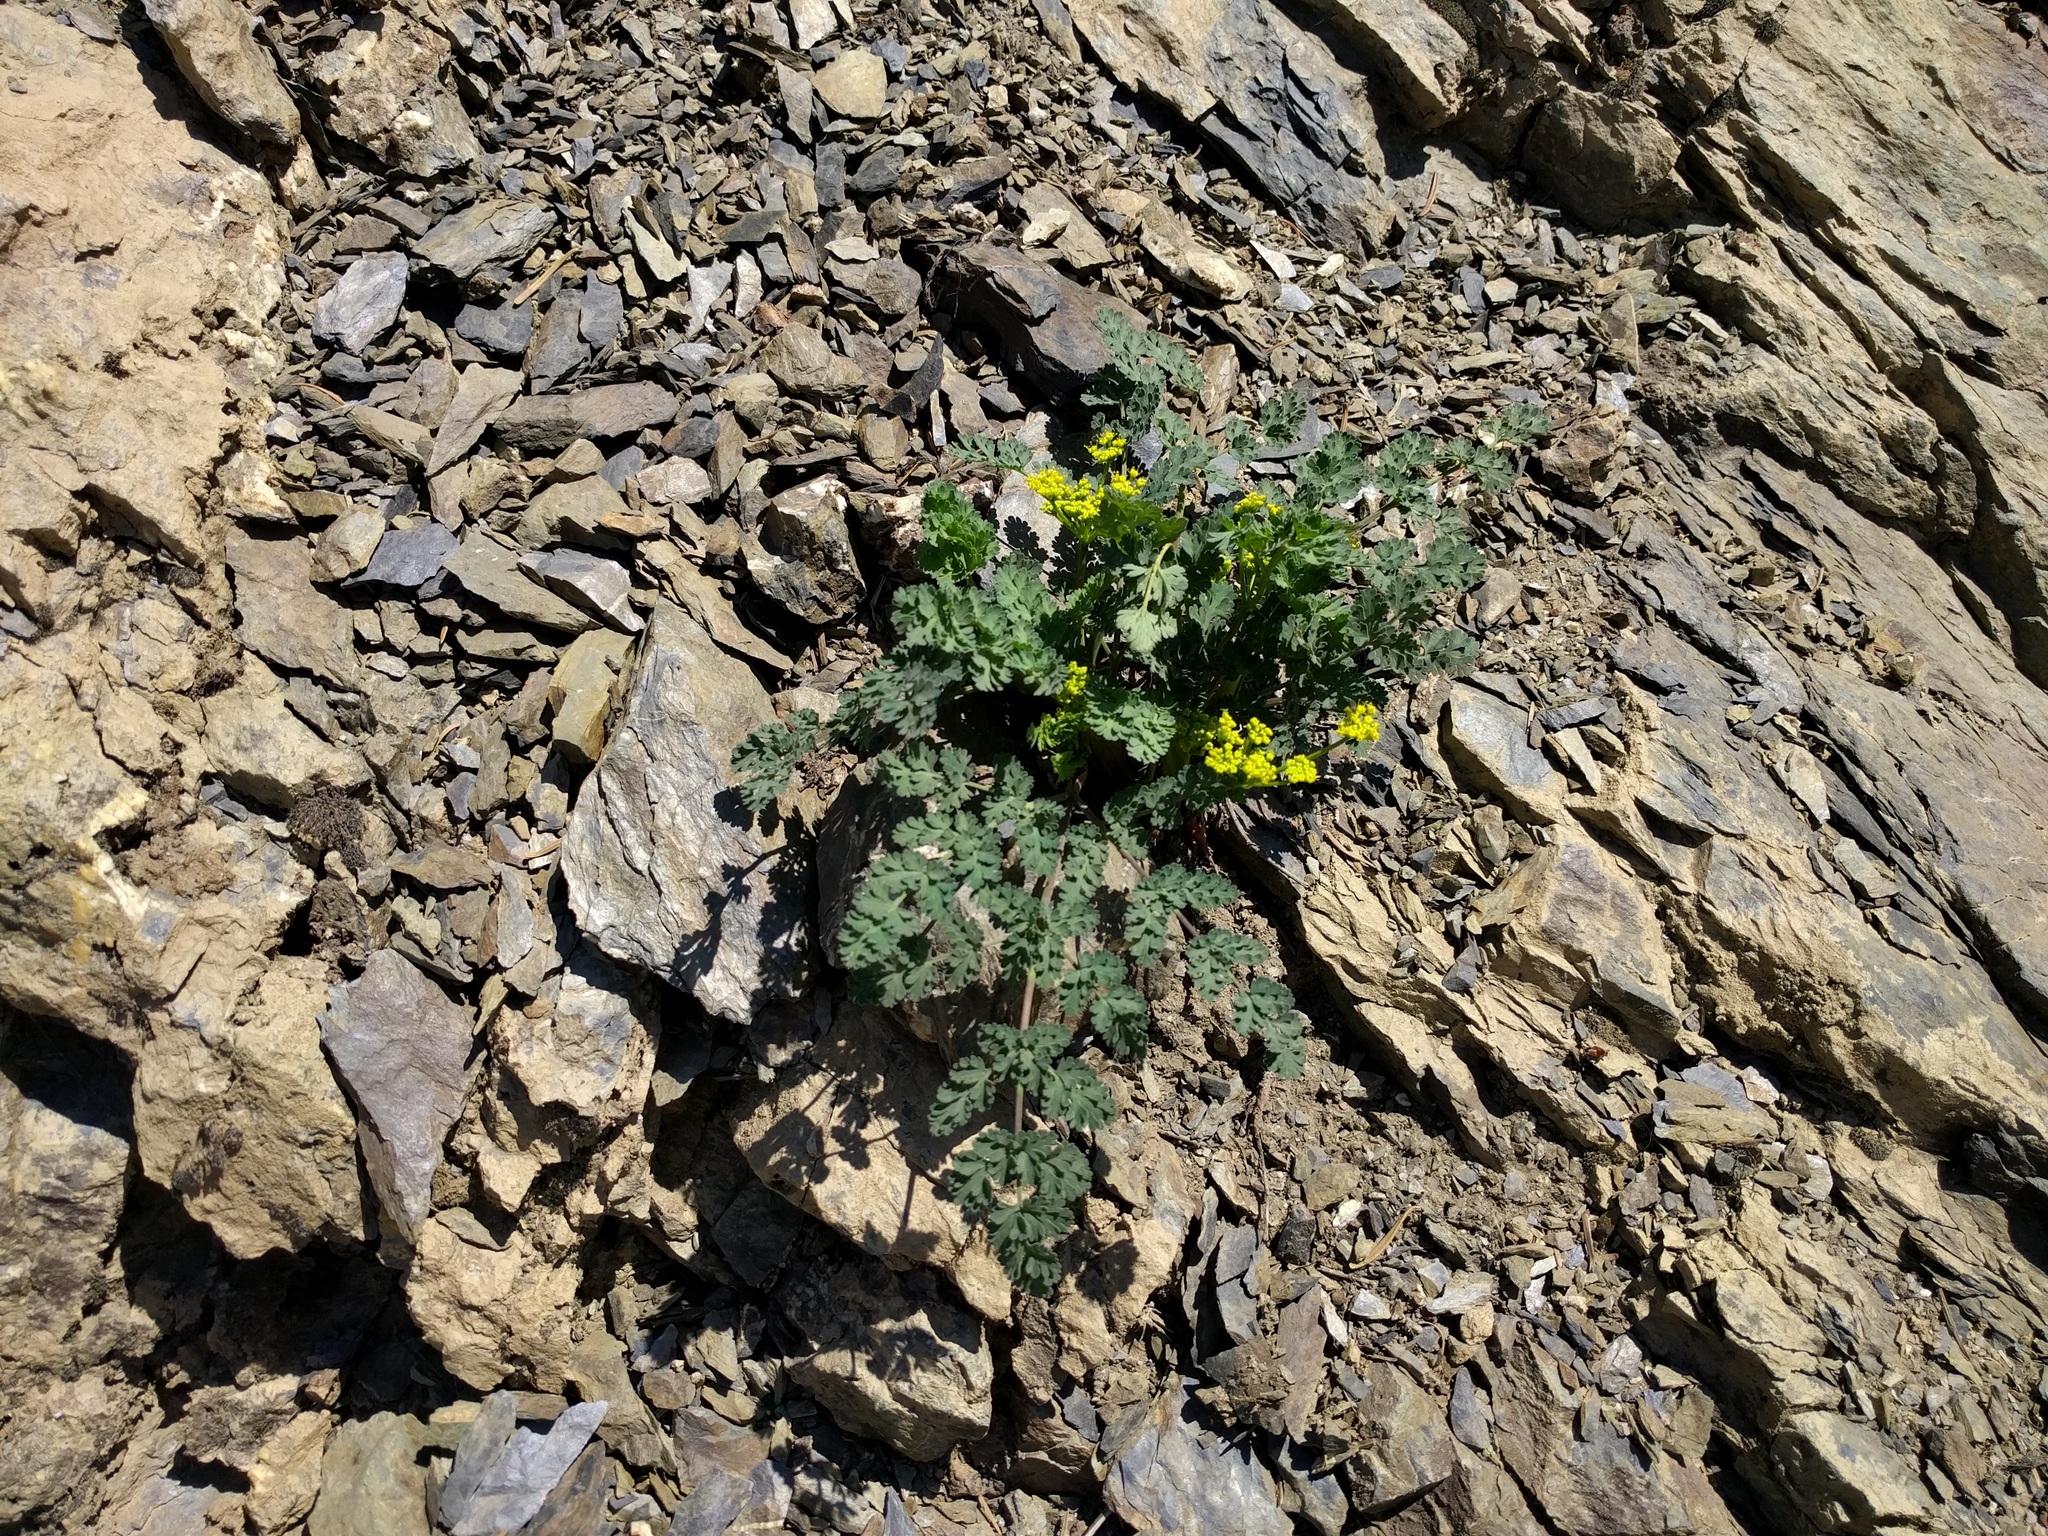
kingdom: Plantae
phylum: Tracheophyta
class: Magnoliopsida
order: Apiales
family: Apiaceae
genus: Lomatium
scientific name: Lomatium martindalei
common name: Cascade desert-parsley
